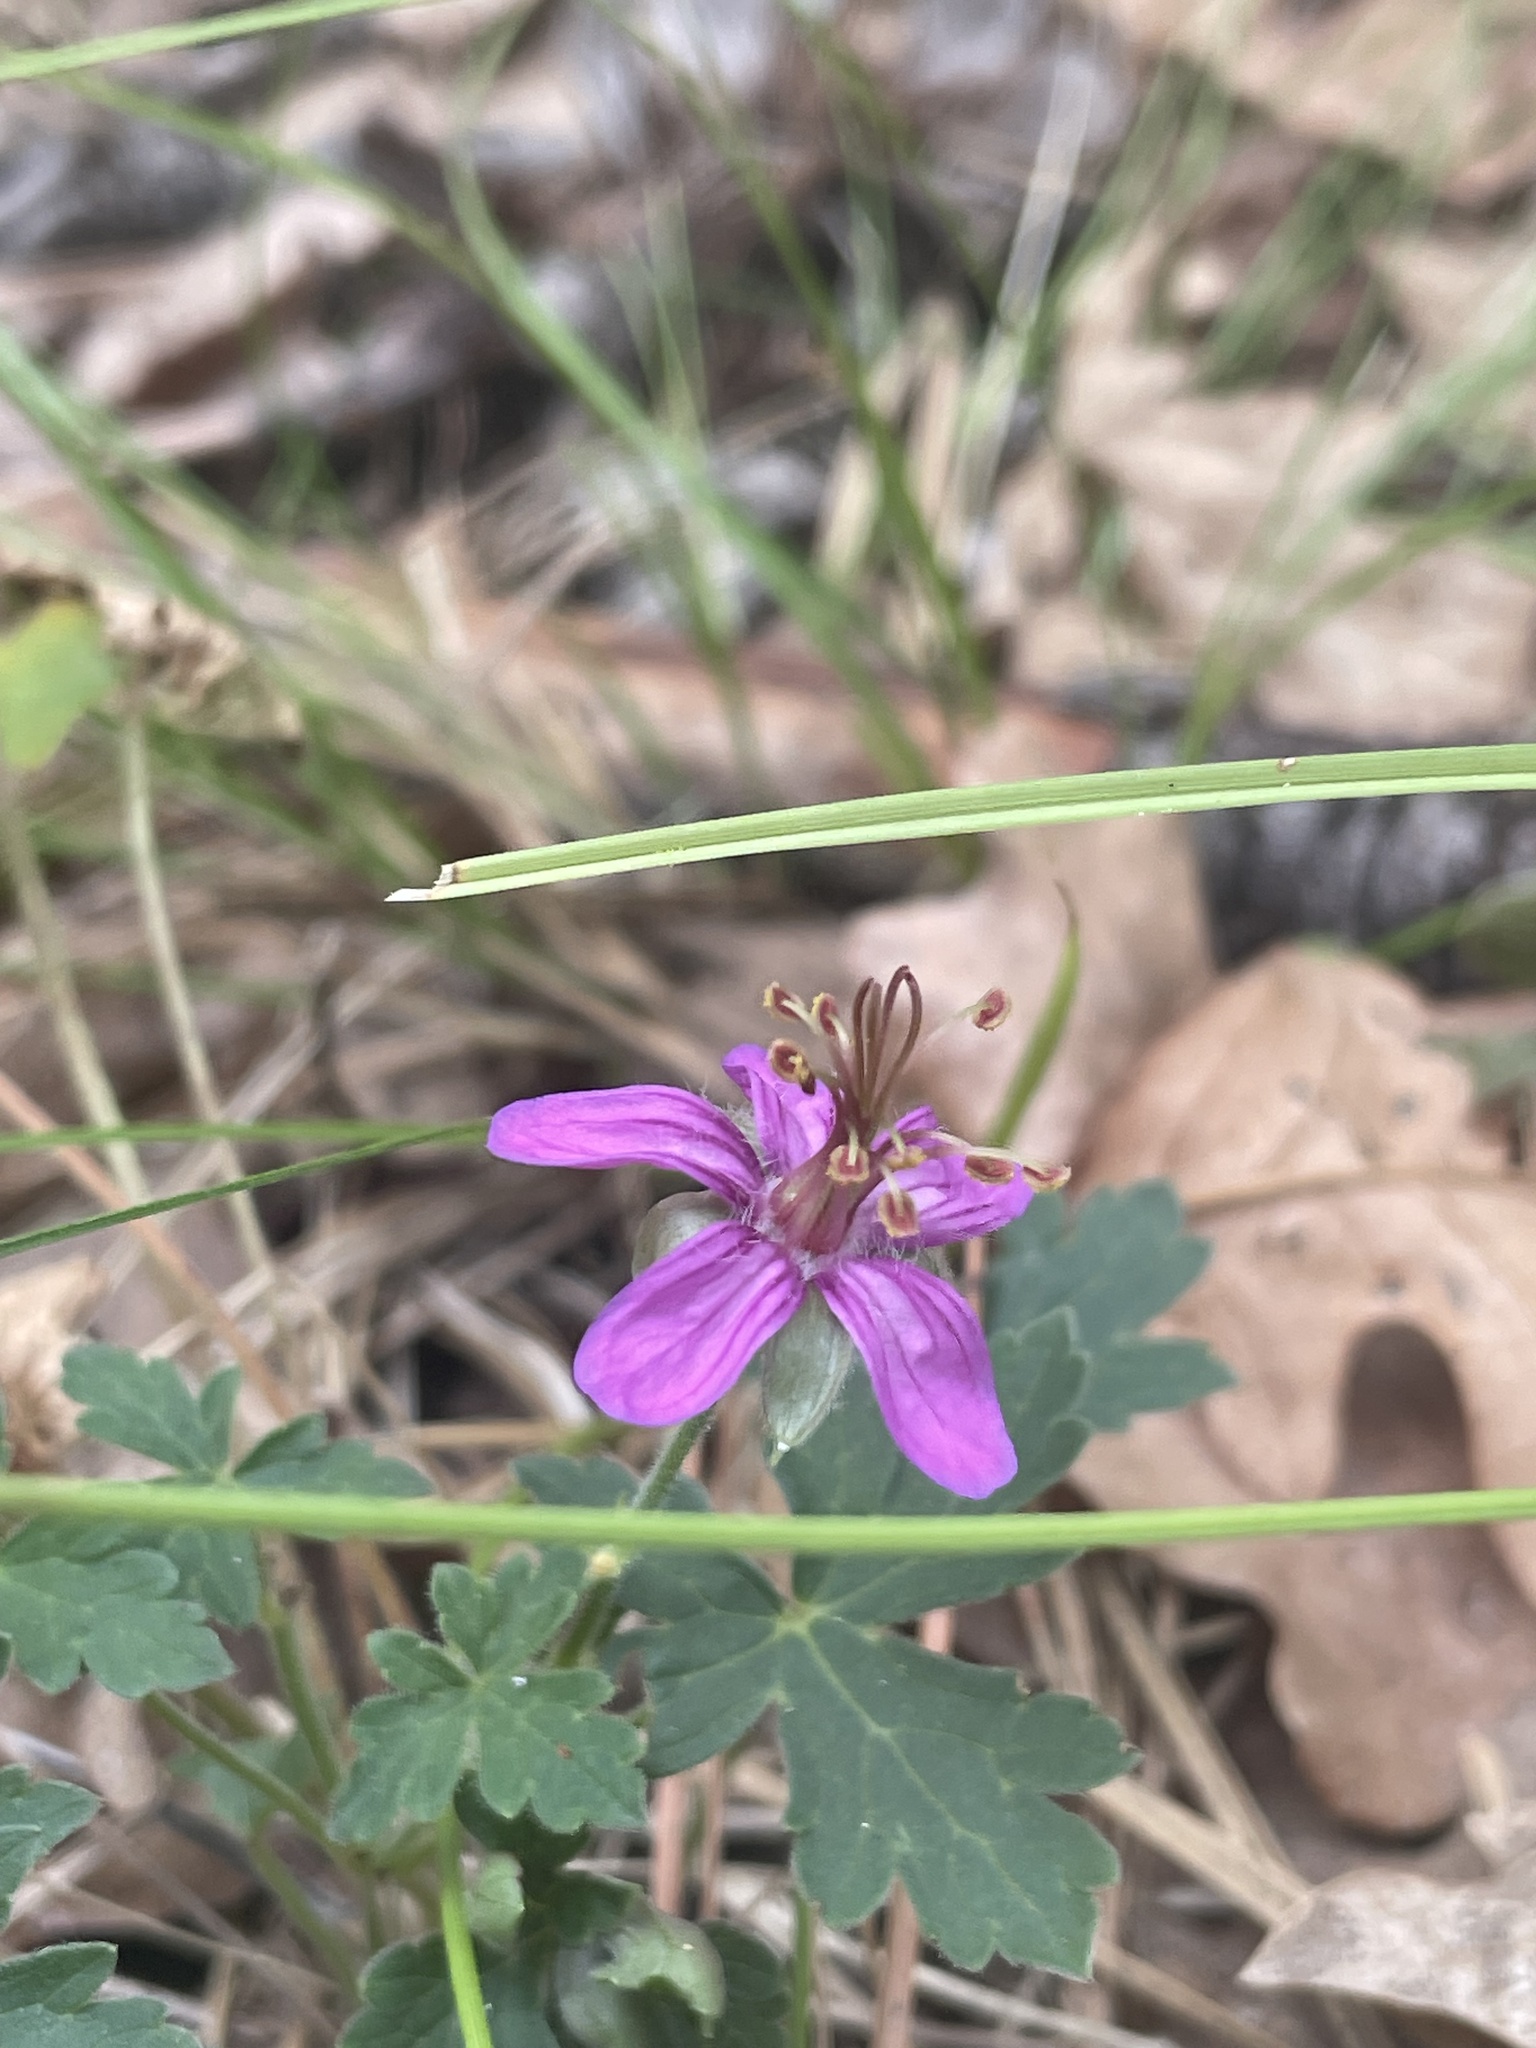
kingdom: Plantae
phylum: Tracheophyta
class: Magnoliopsida
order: Geraniales
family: Geraniaceae
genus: Geranium
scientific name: Geranium caespitosum
